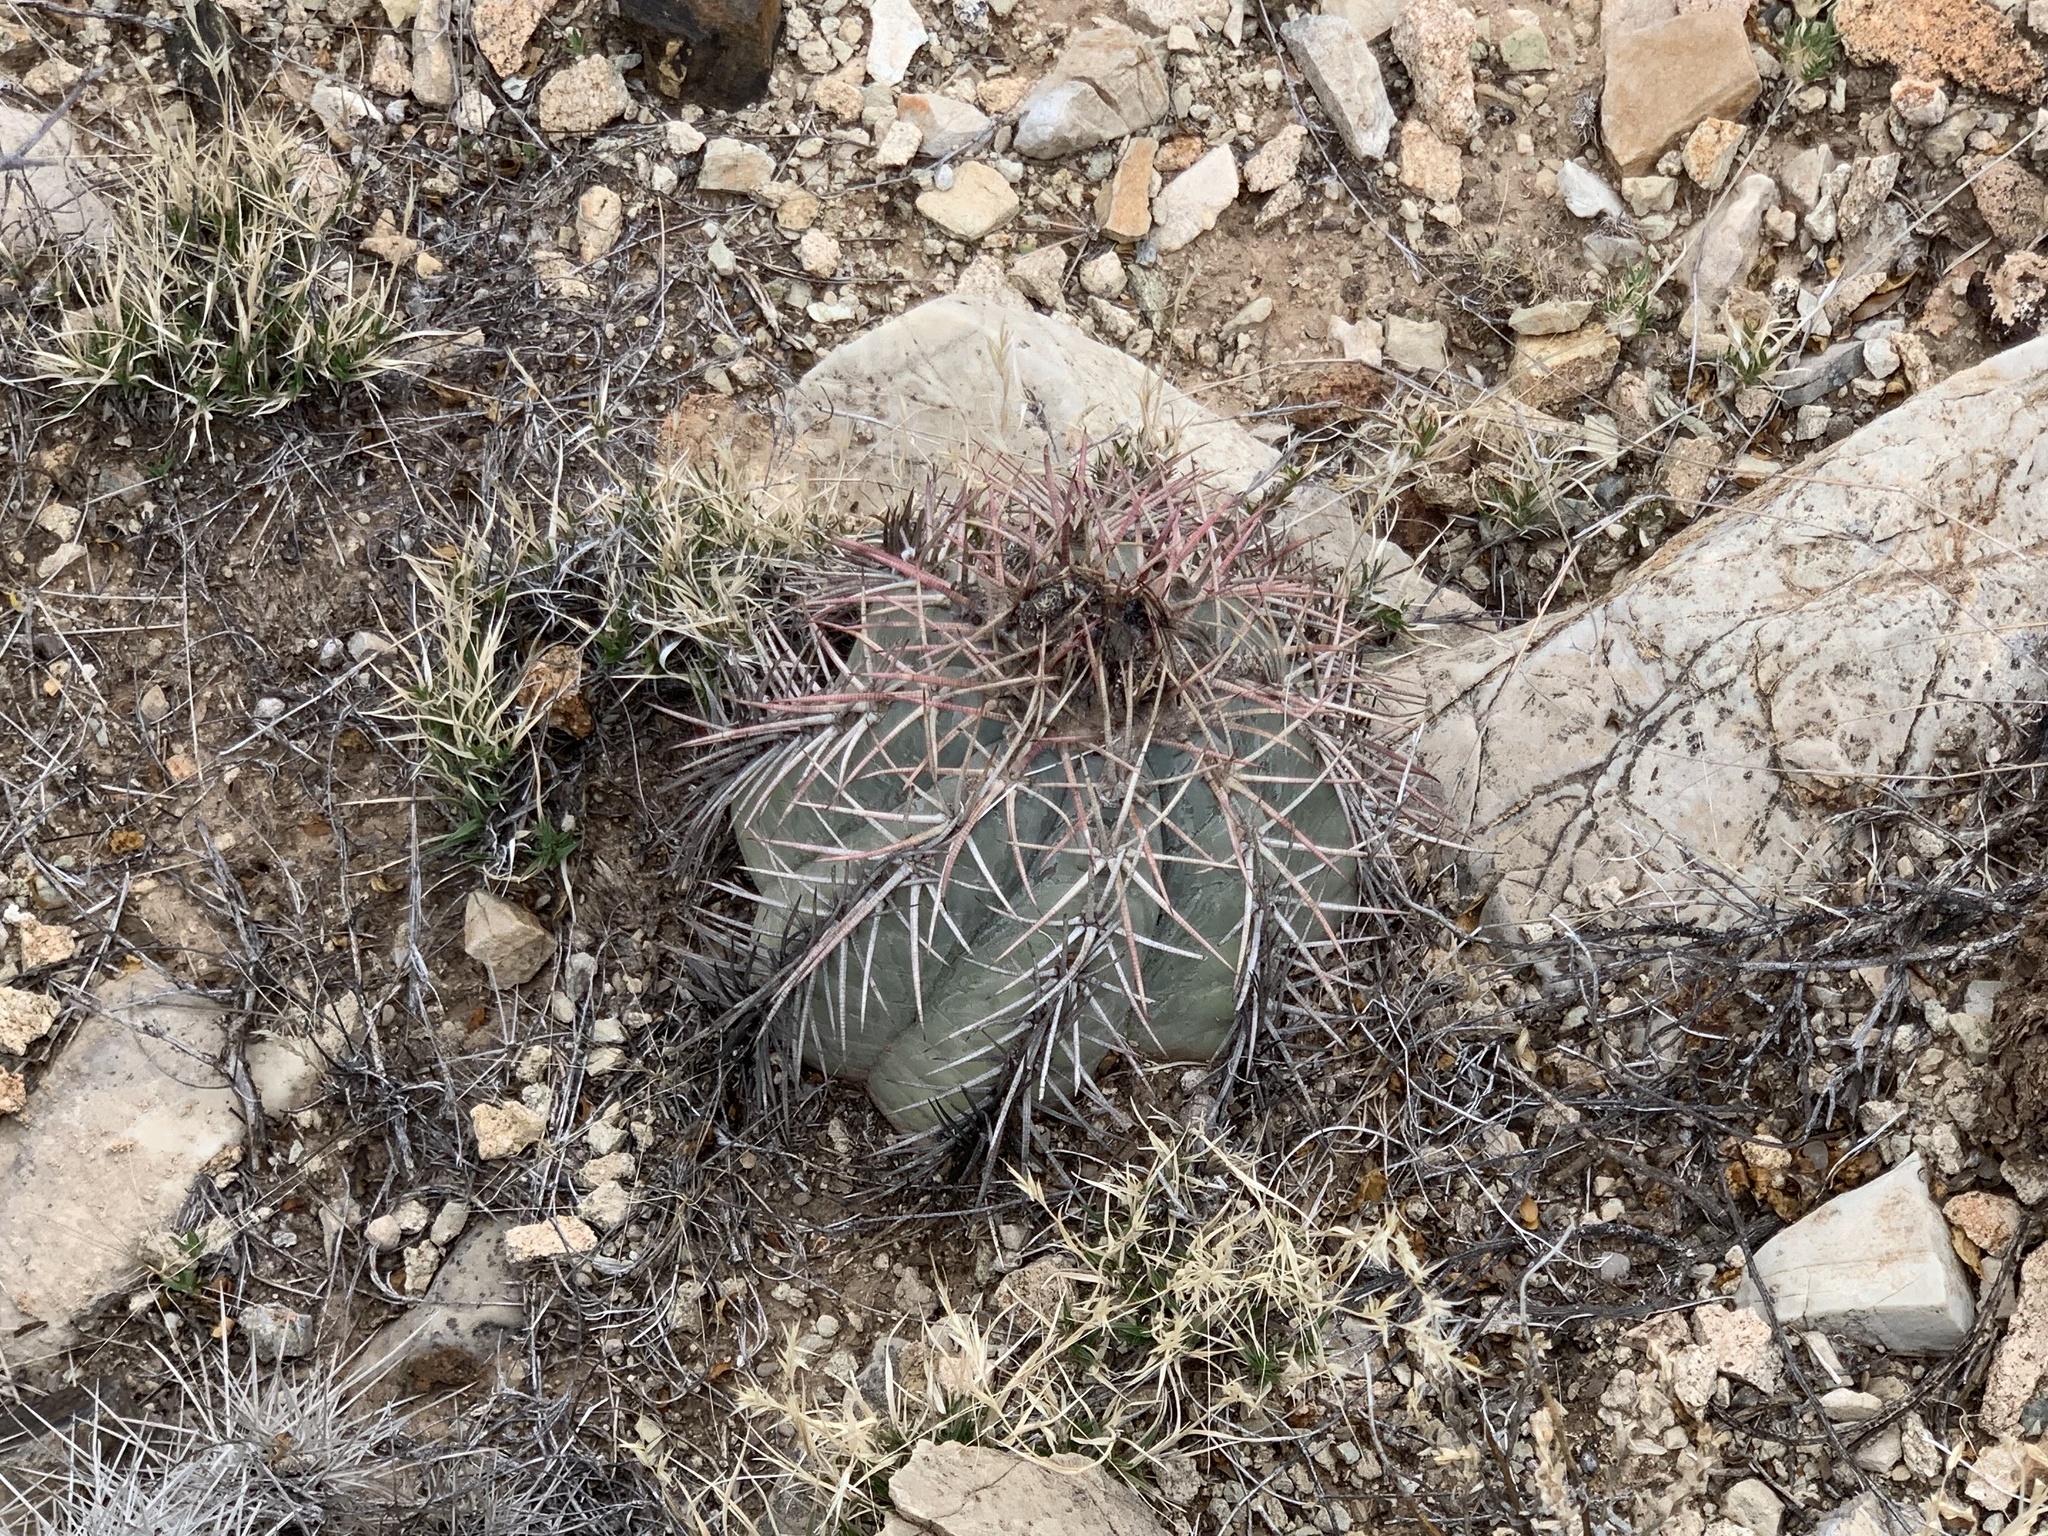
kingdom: Plantae
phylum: Tracheophyta
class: Magnoliopsida
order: Caryophyllales
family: Cactaceae
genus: Echinocactus
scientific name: Echinocactus horizonthalonius
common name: Devilshead
